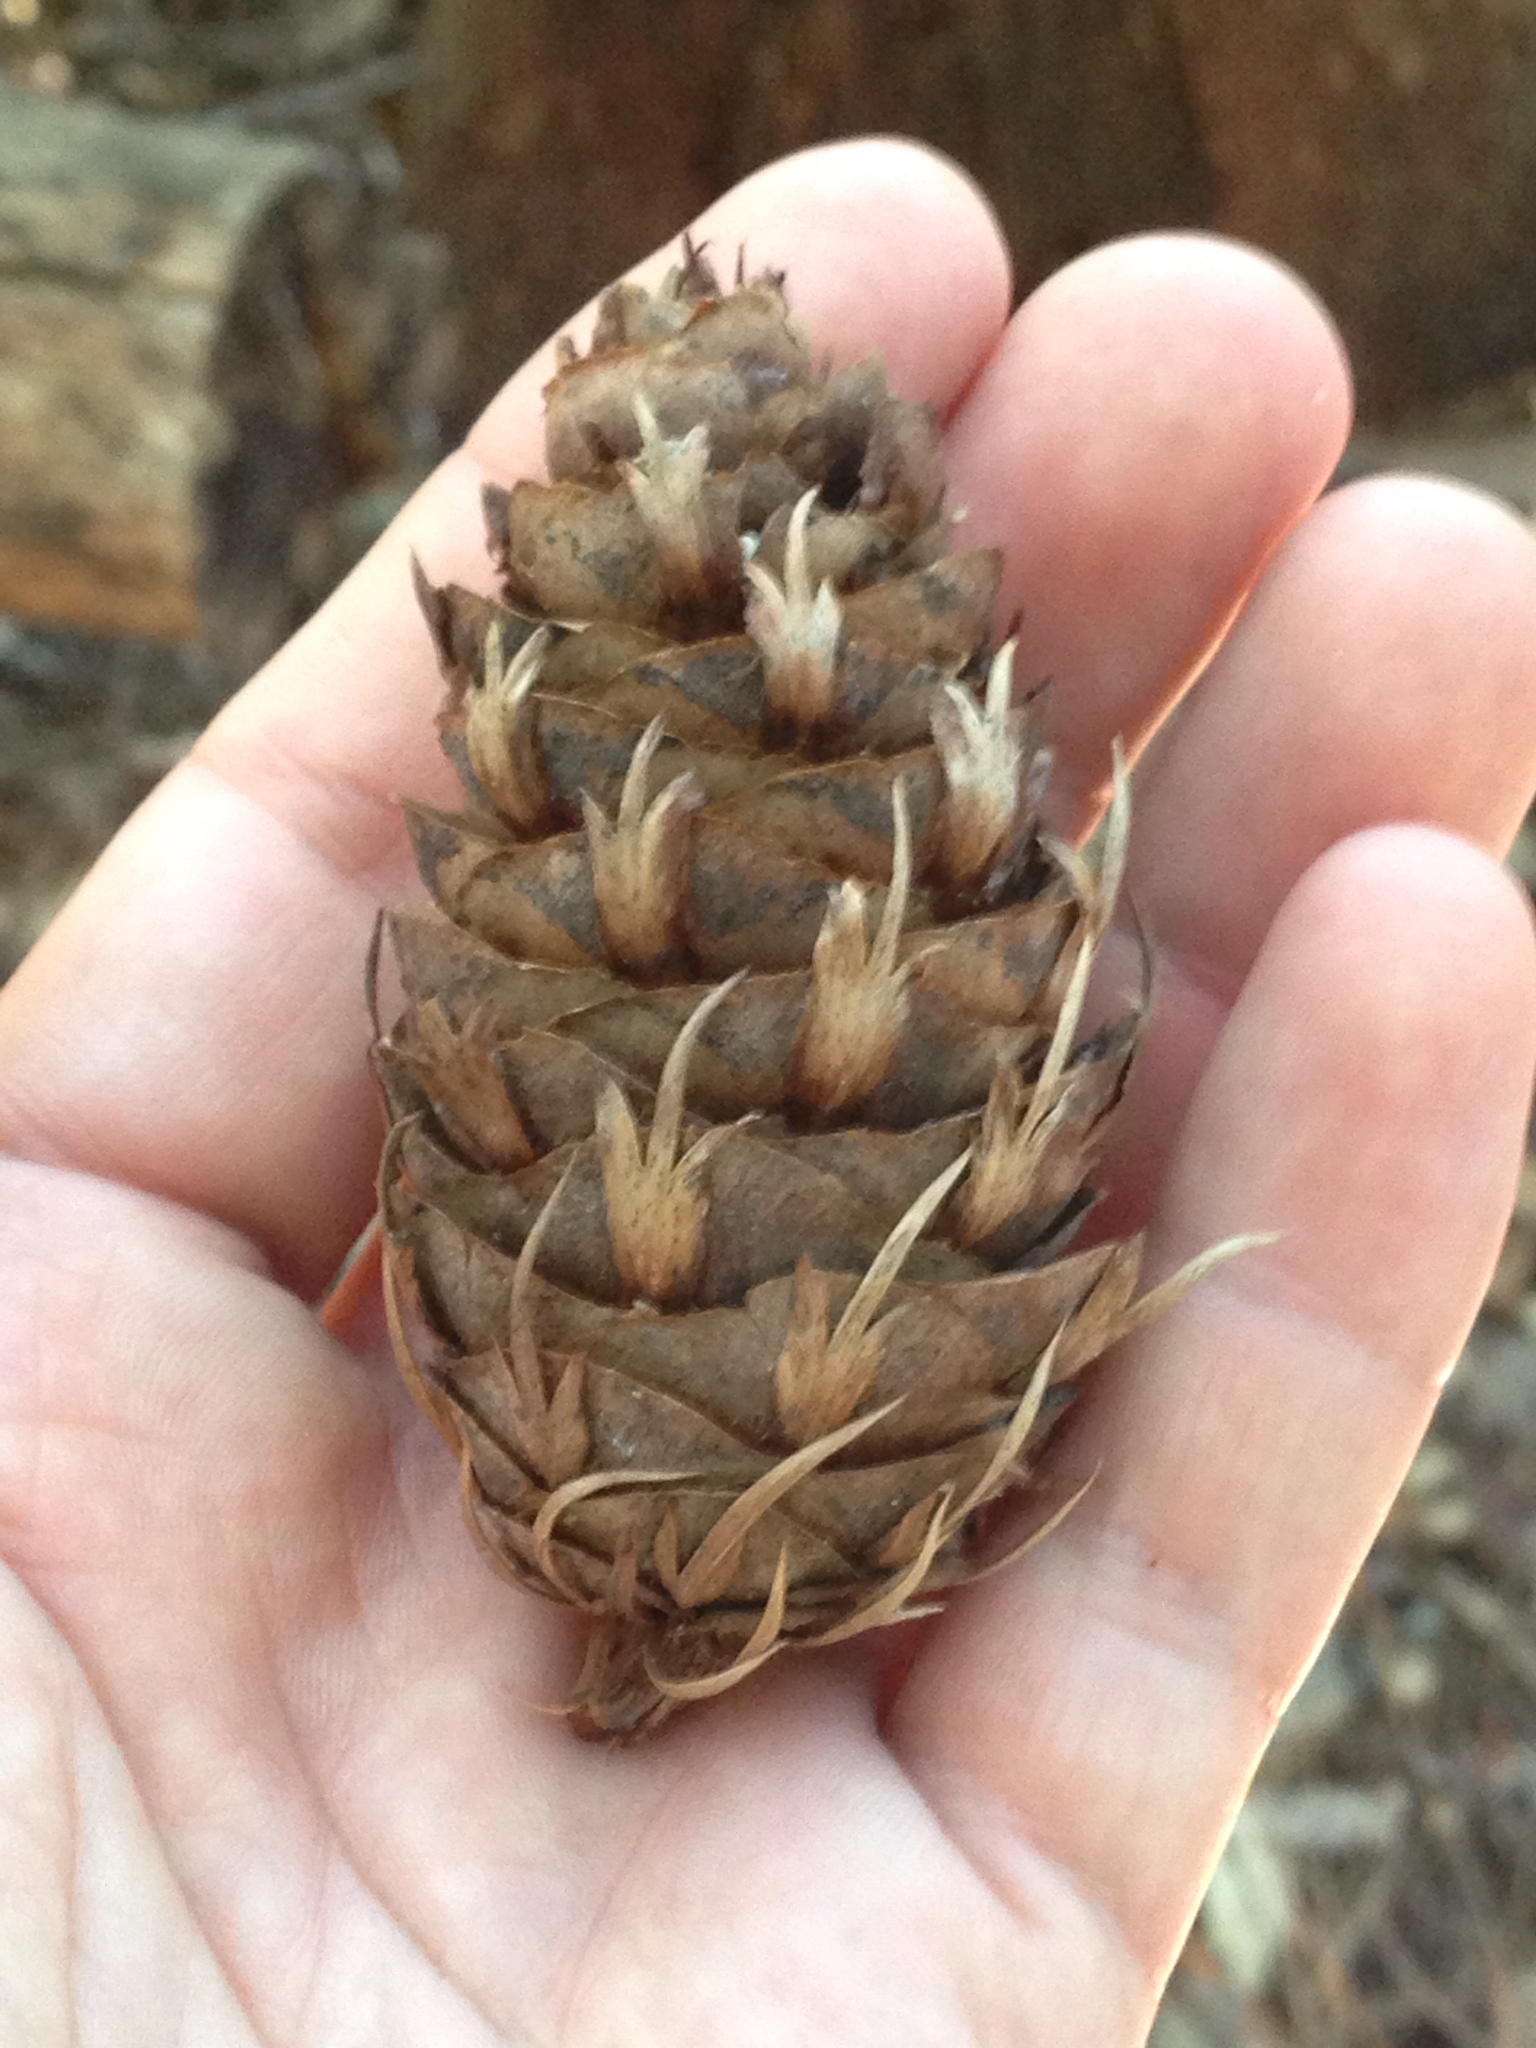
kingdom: Plantae
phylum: Tracheophyta
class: Pinopsida
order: Pinales
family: Pinaceae
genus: Pseudotsuga
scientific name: Pseudotsuga menziesii
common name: Douglas fir
